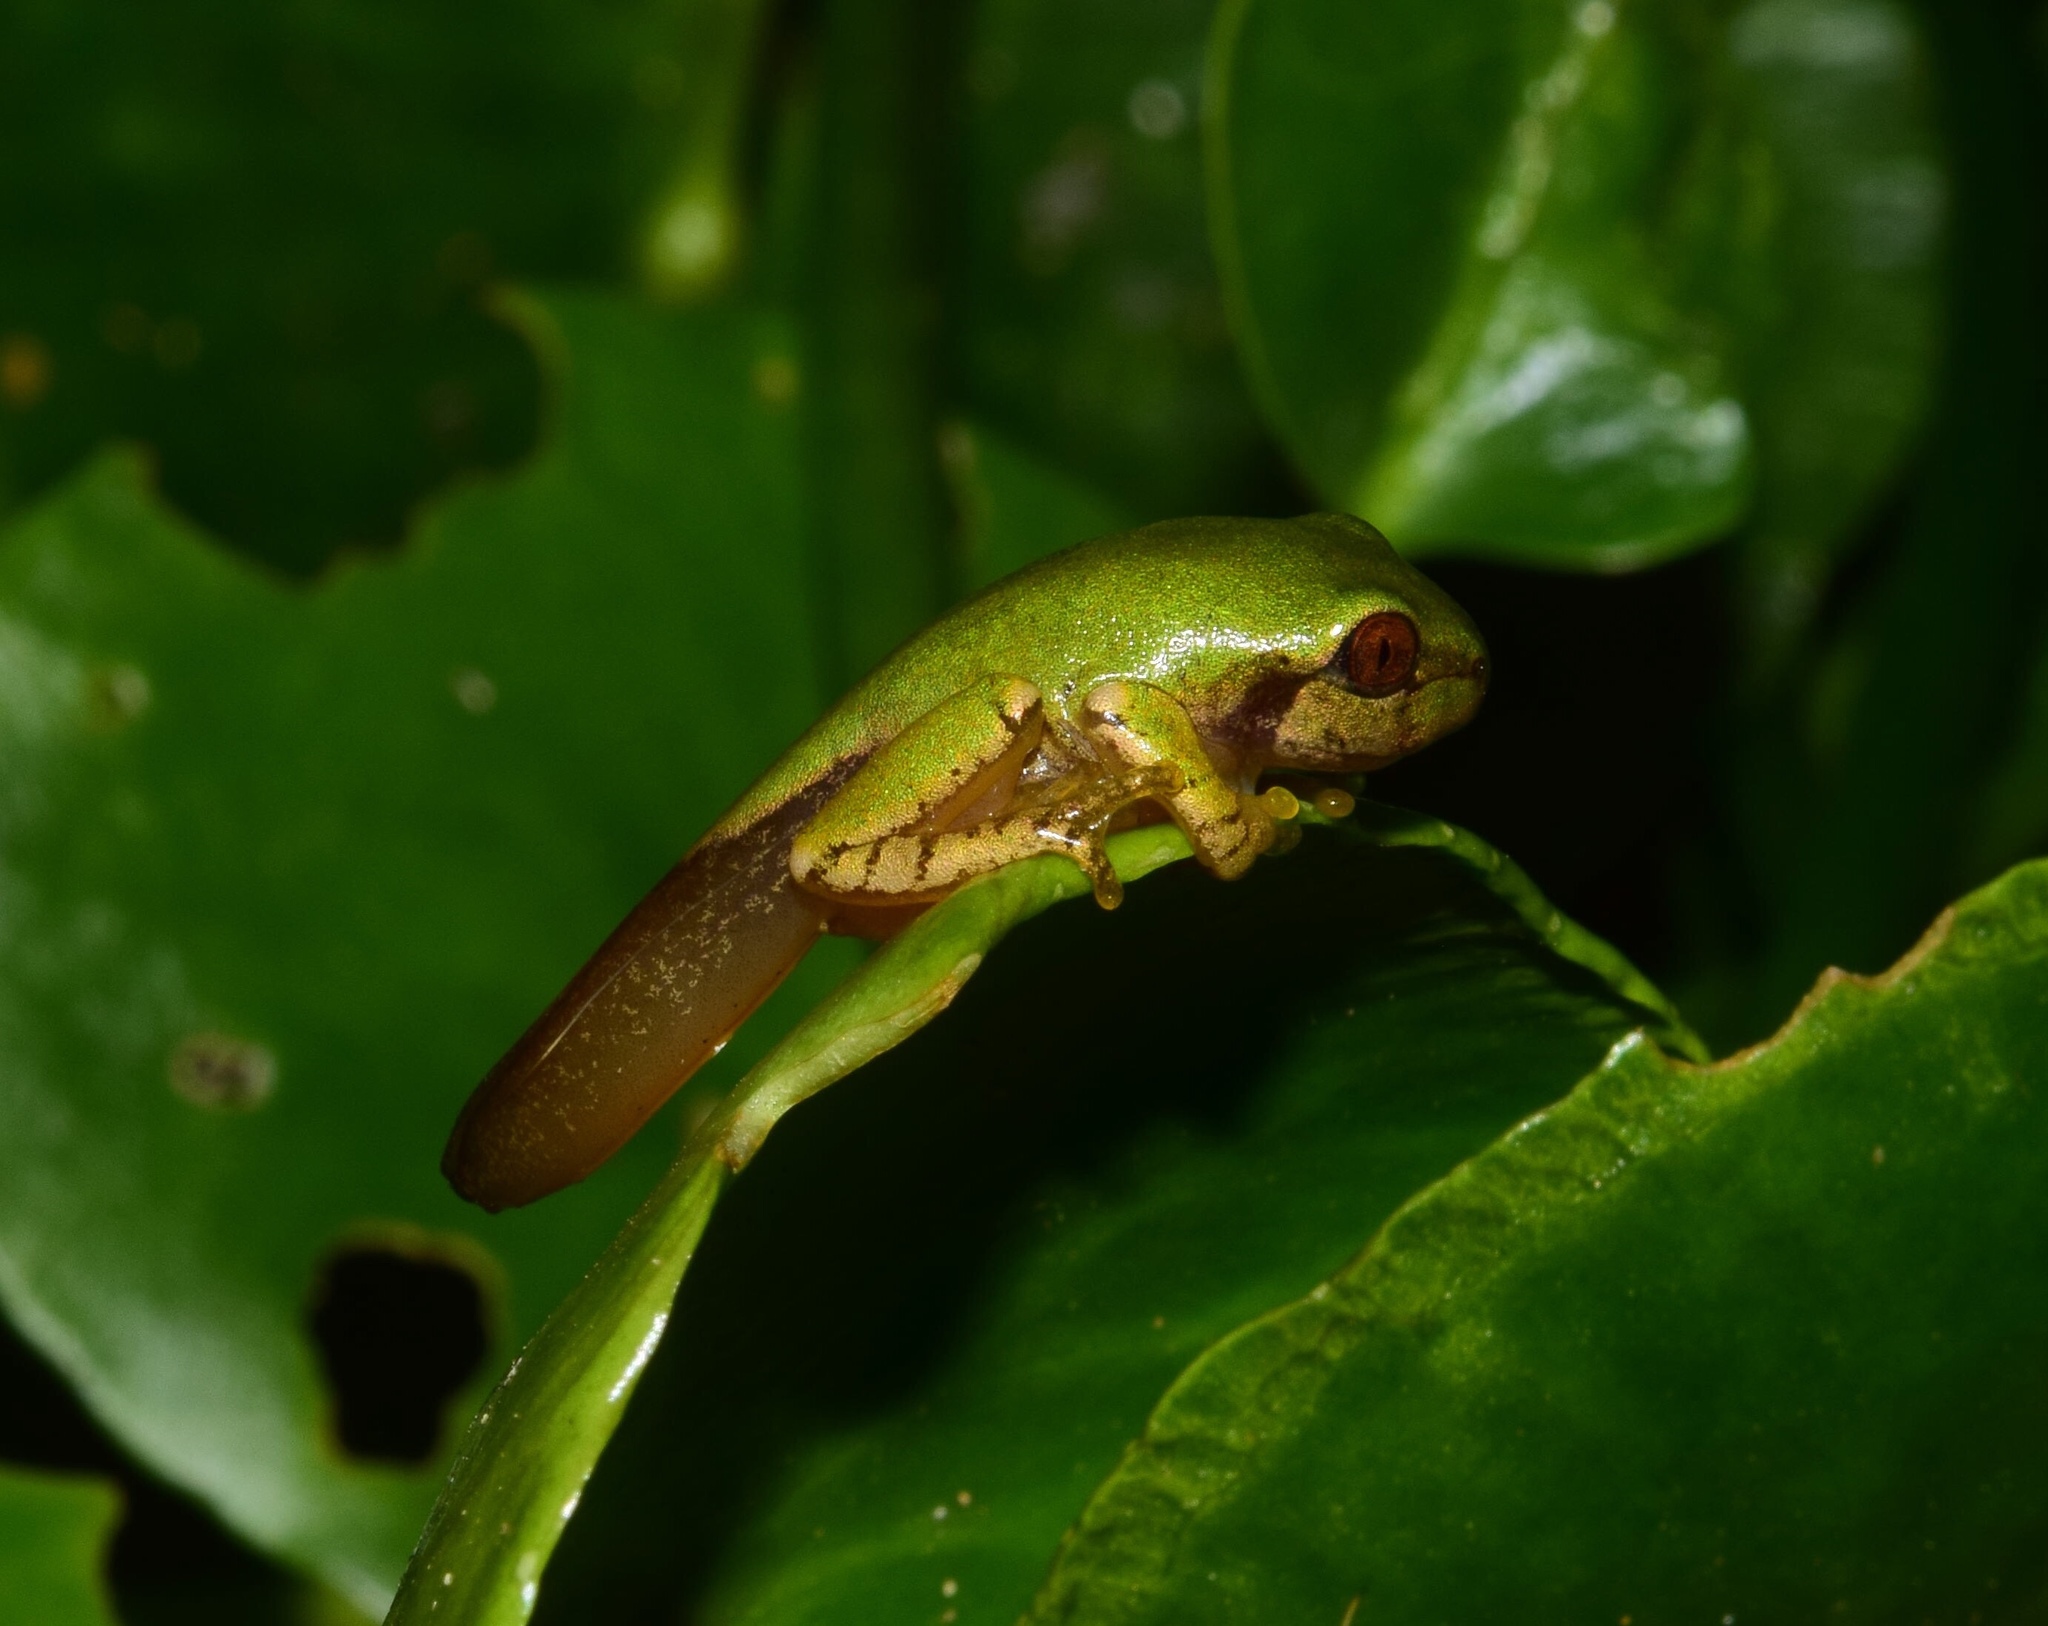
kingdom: Animalia
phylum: Chordata
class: Amphibia
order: Anura
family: Arthroleptidae
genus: Leptopelis
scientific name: Leptopelis natalensis
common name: Natal tree frog
